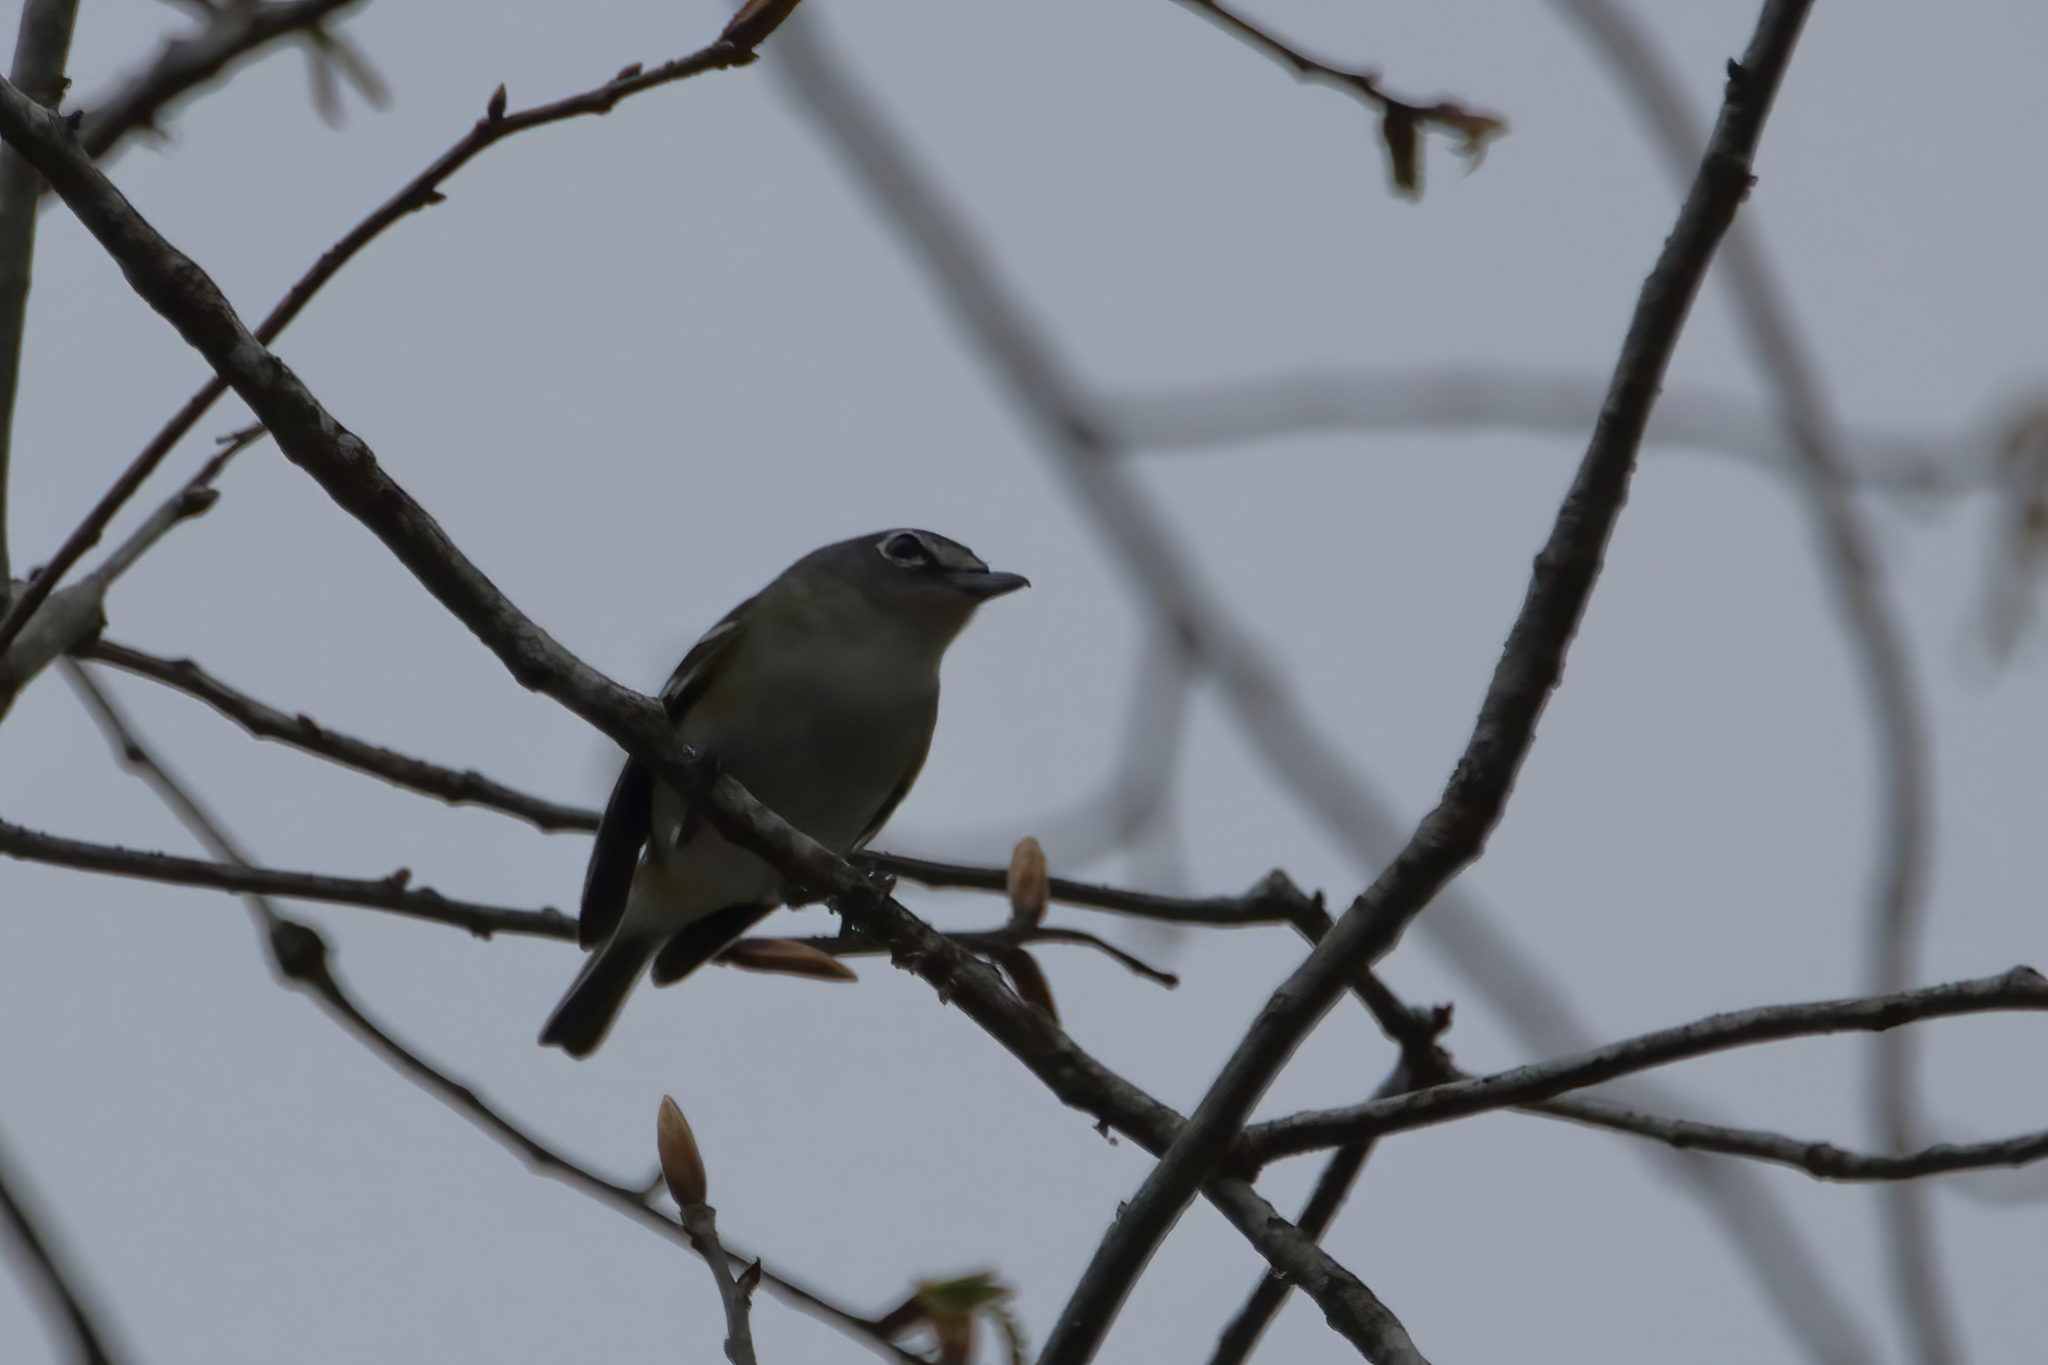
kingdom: Animalia
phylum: Chordata
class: Aves
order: Passeriformes
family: Vireonidae
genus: Vireo
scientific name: Vireo solitarius
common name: Blue-headed vireo
